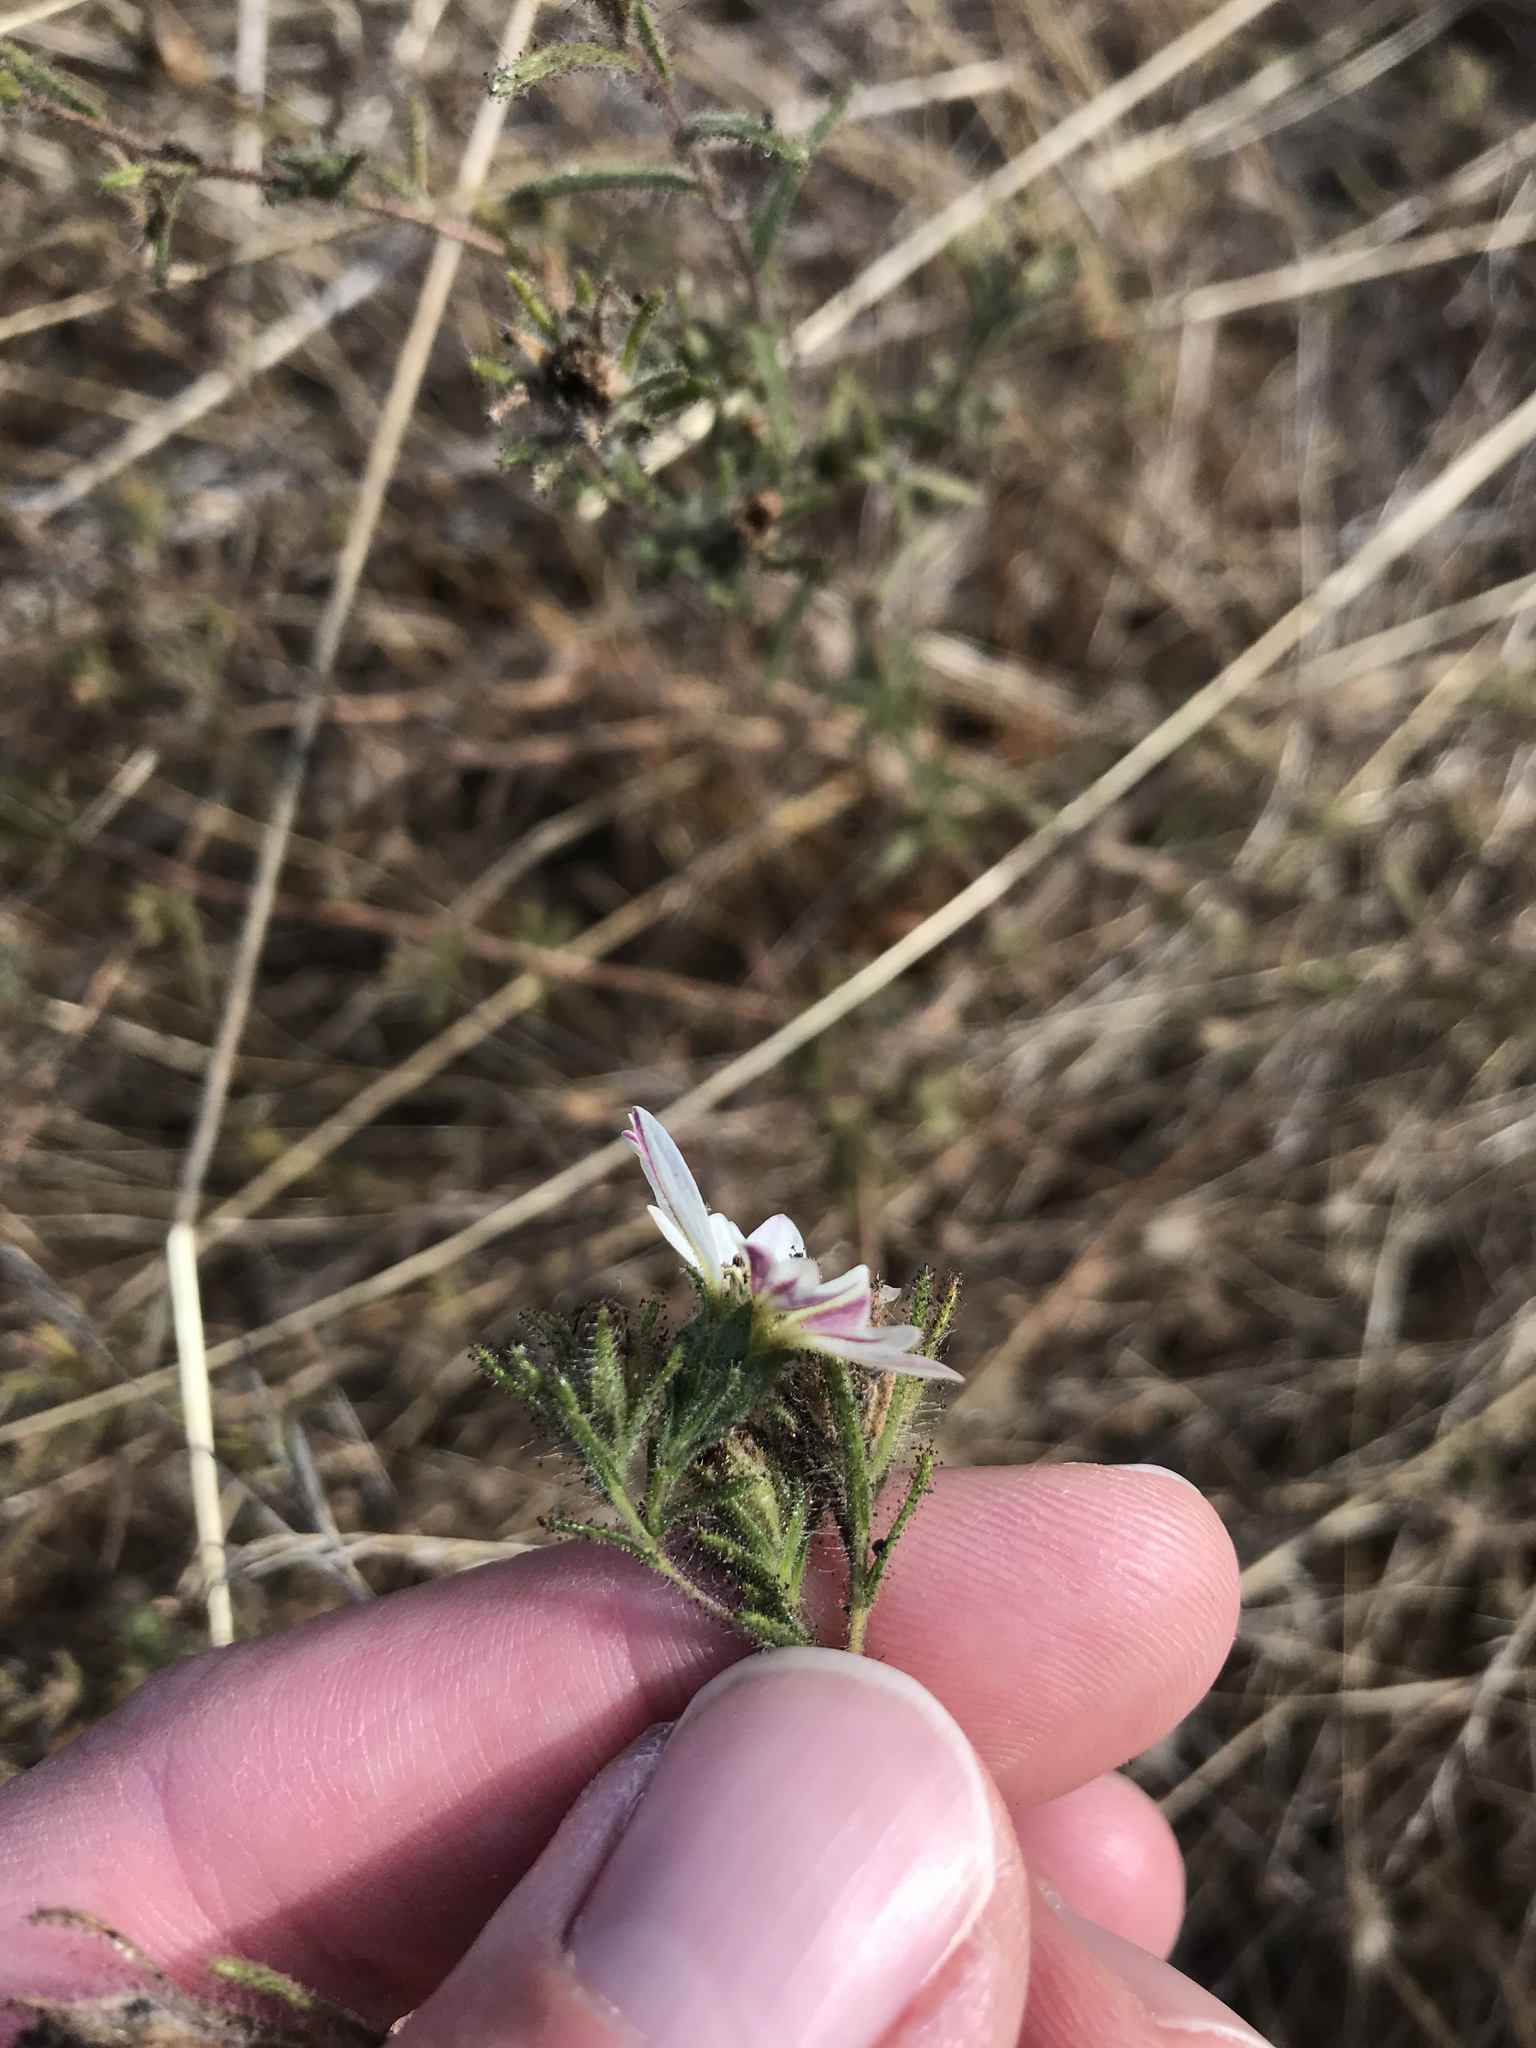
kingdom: Plantae
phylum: Tracheophyta
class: Magnoliopsida
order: Asterales
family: Asteraceae
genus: Hemizonia
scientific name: Hemizonia congesta
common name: Hayfield tarweed
